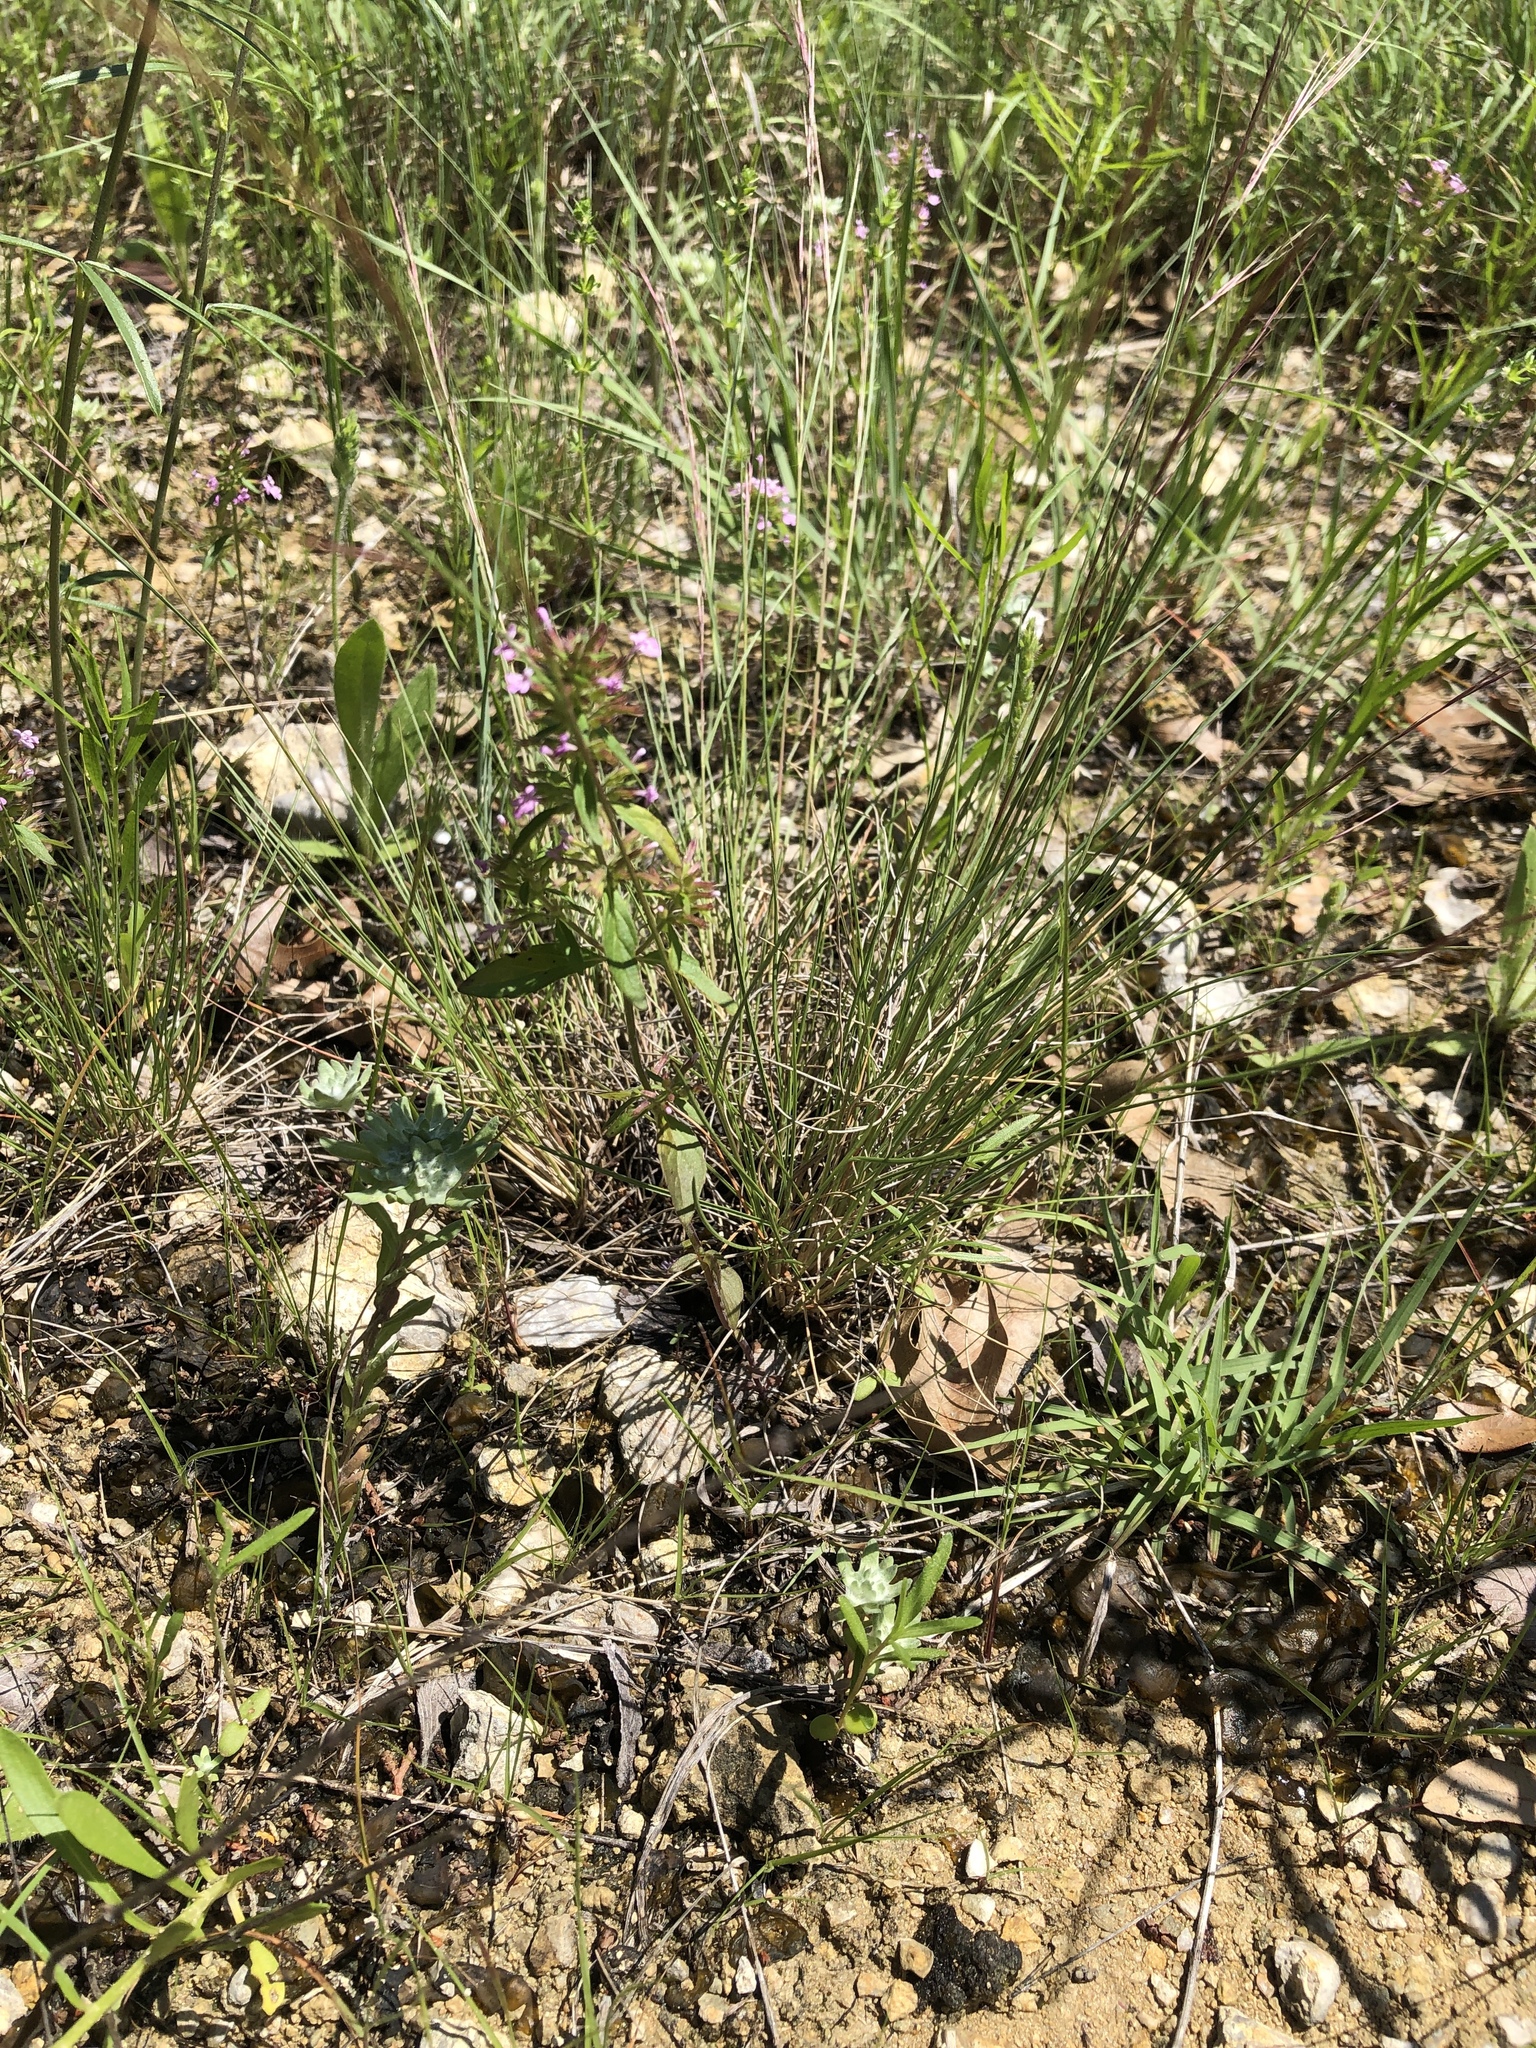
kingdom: Plantae
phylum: Tracheophyta
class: Magnoliopsida
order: Lamiales
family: Lamiaceae
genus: Hedeoma
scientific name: Hedeoma acinoides
